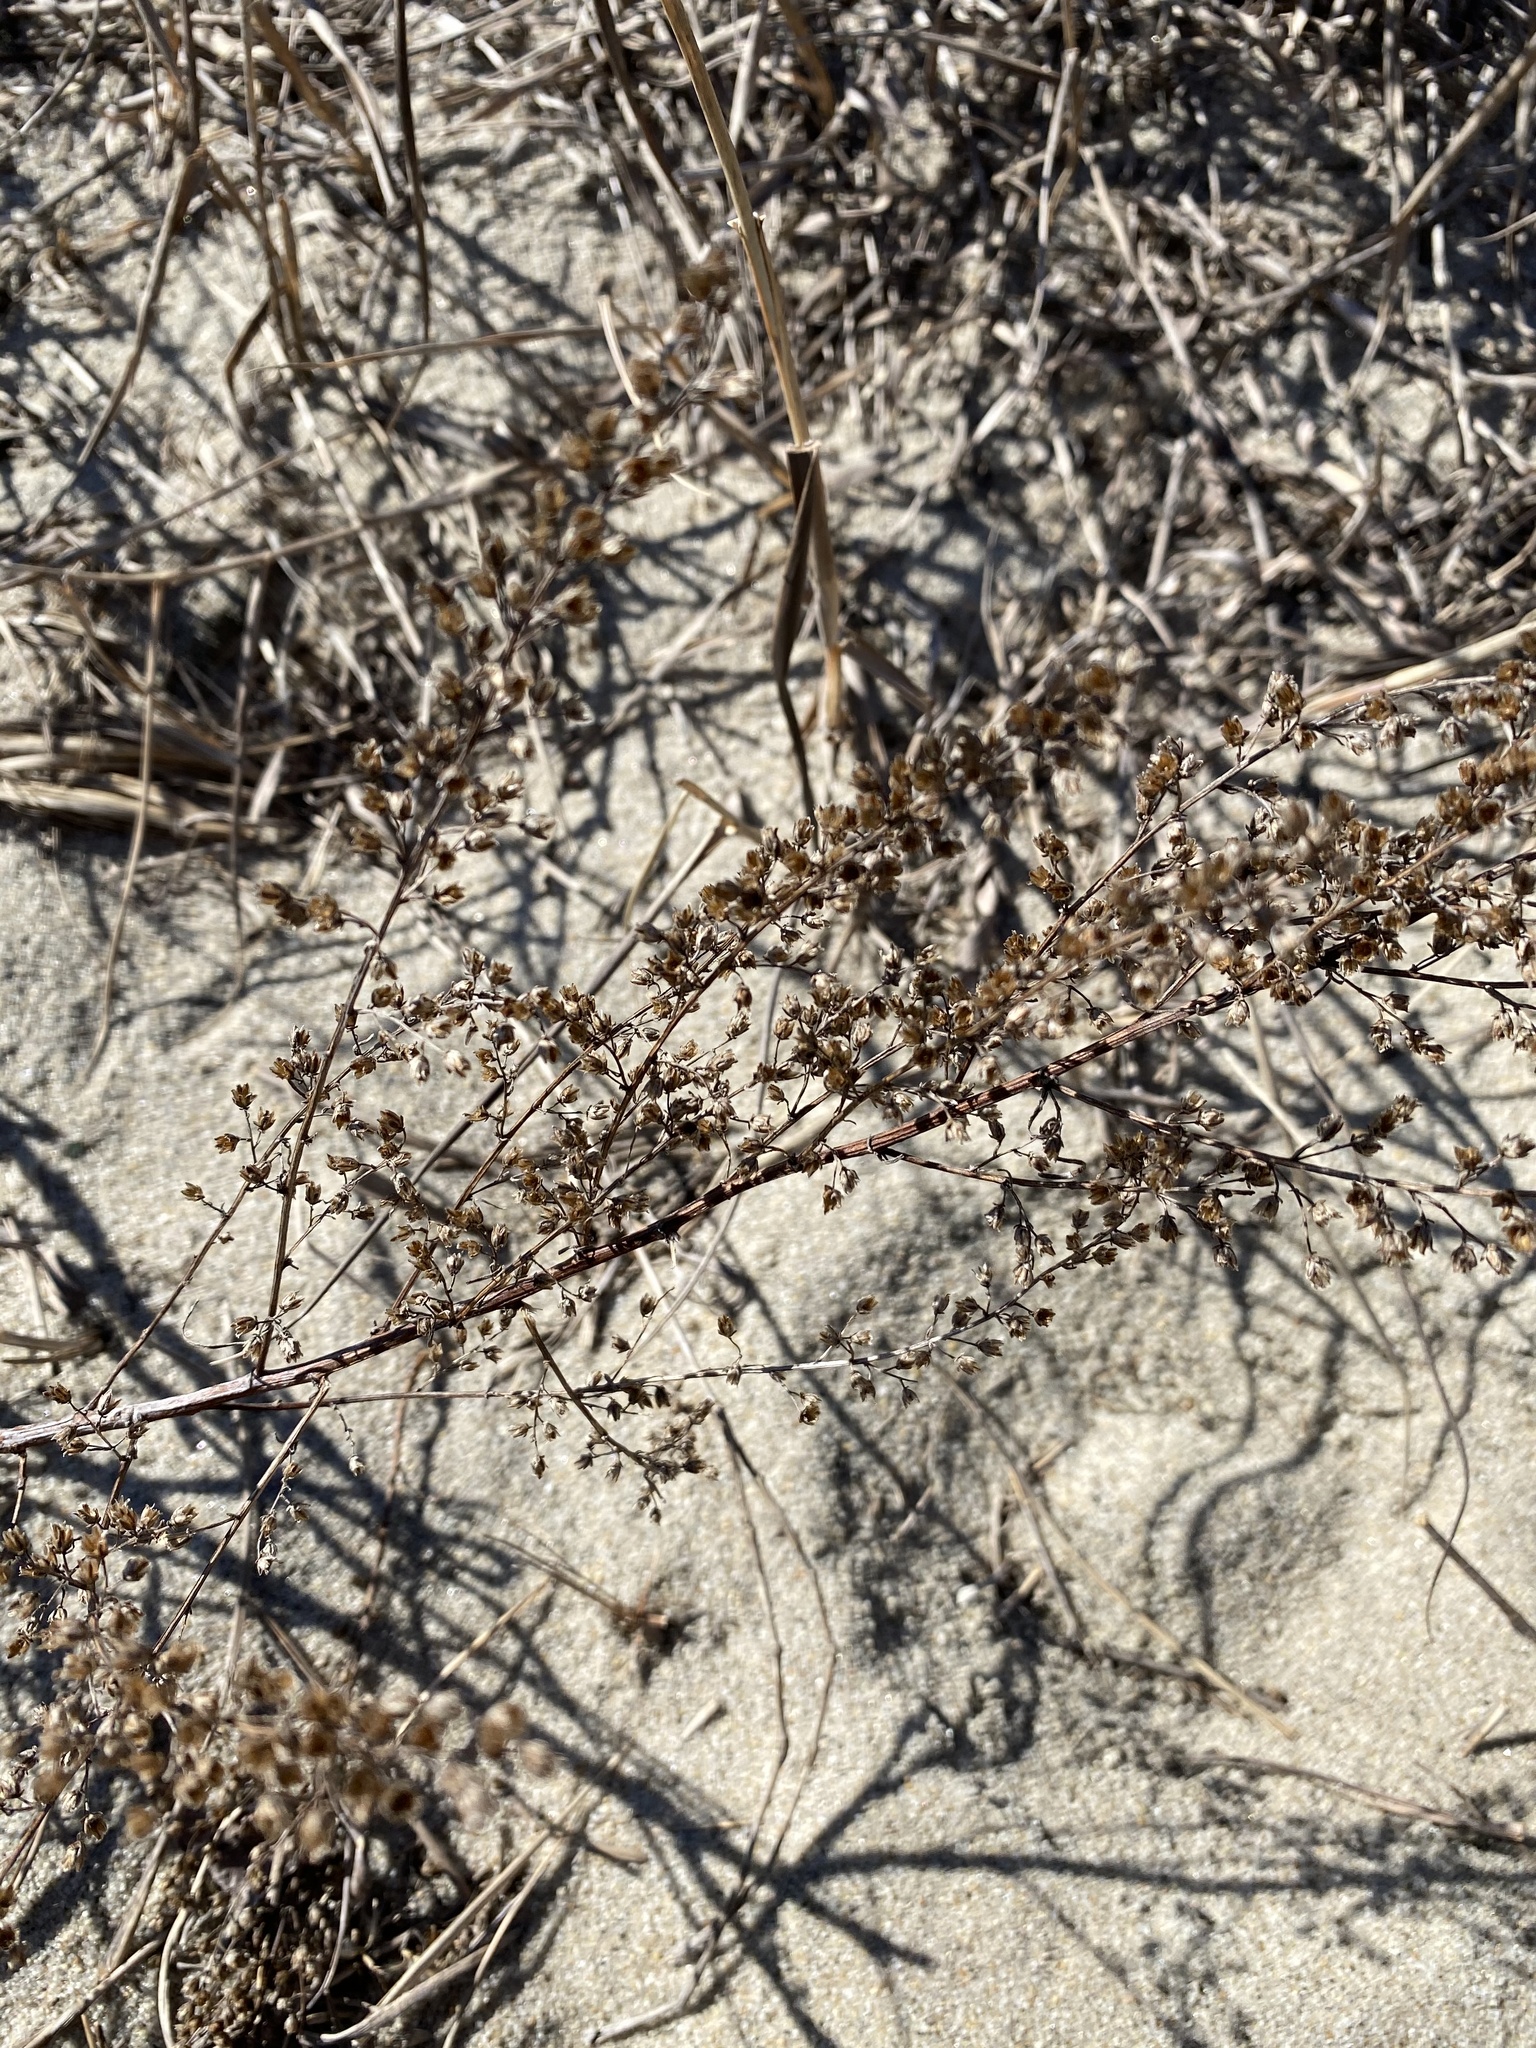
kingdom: Plantae
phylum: Tracheophyta
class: Magnoliopsida
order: Asterales
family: Asteraceae
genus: Artemisia
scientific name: Artemisia campestris
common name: Field wormwood
